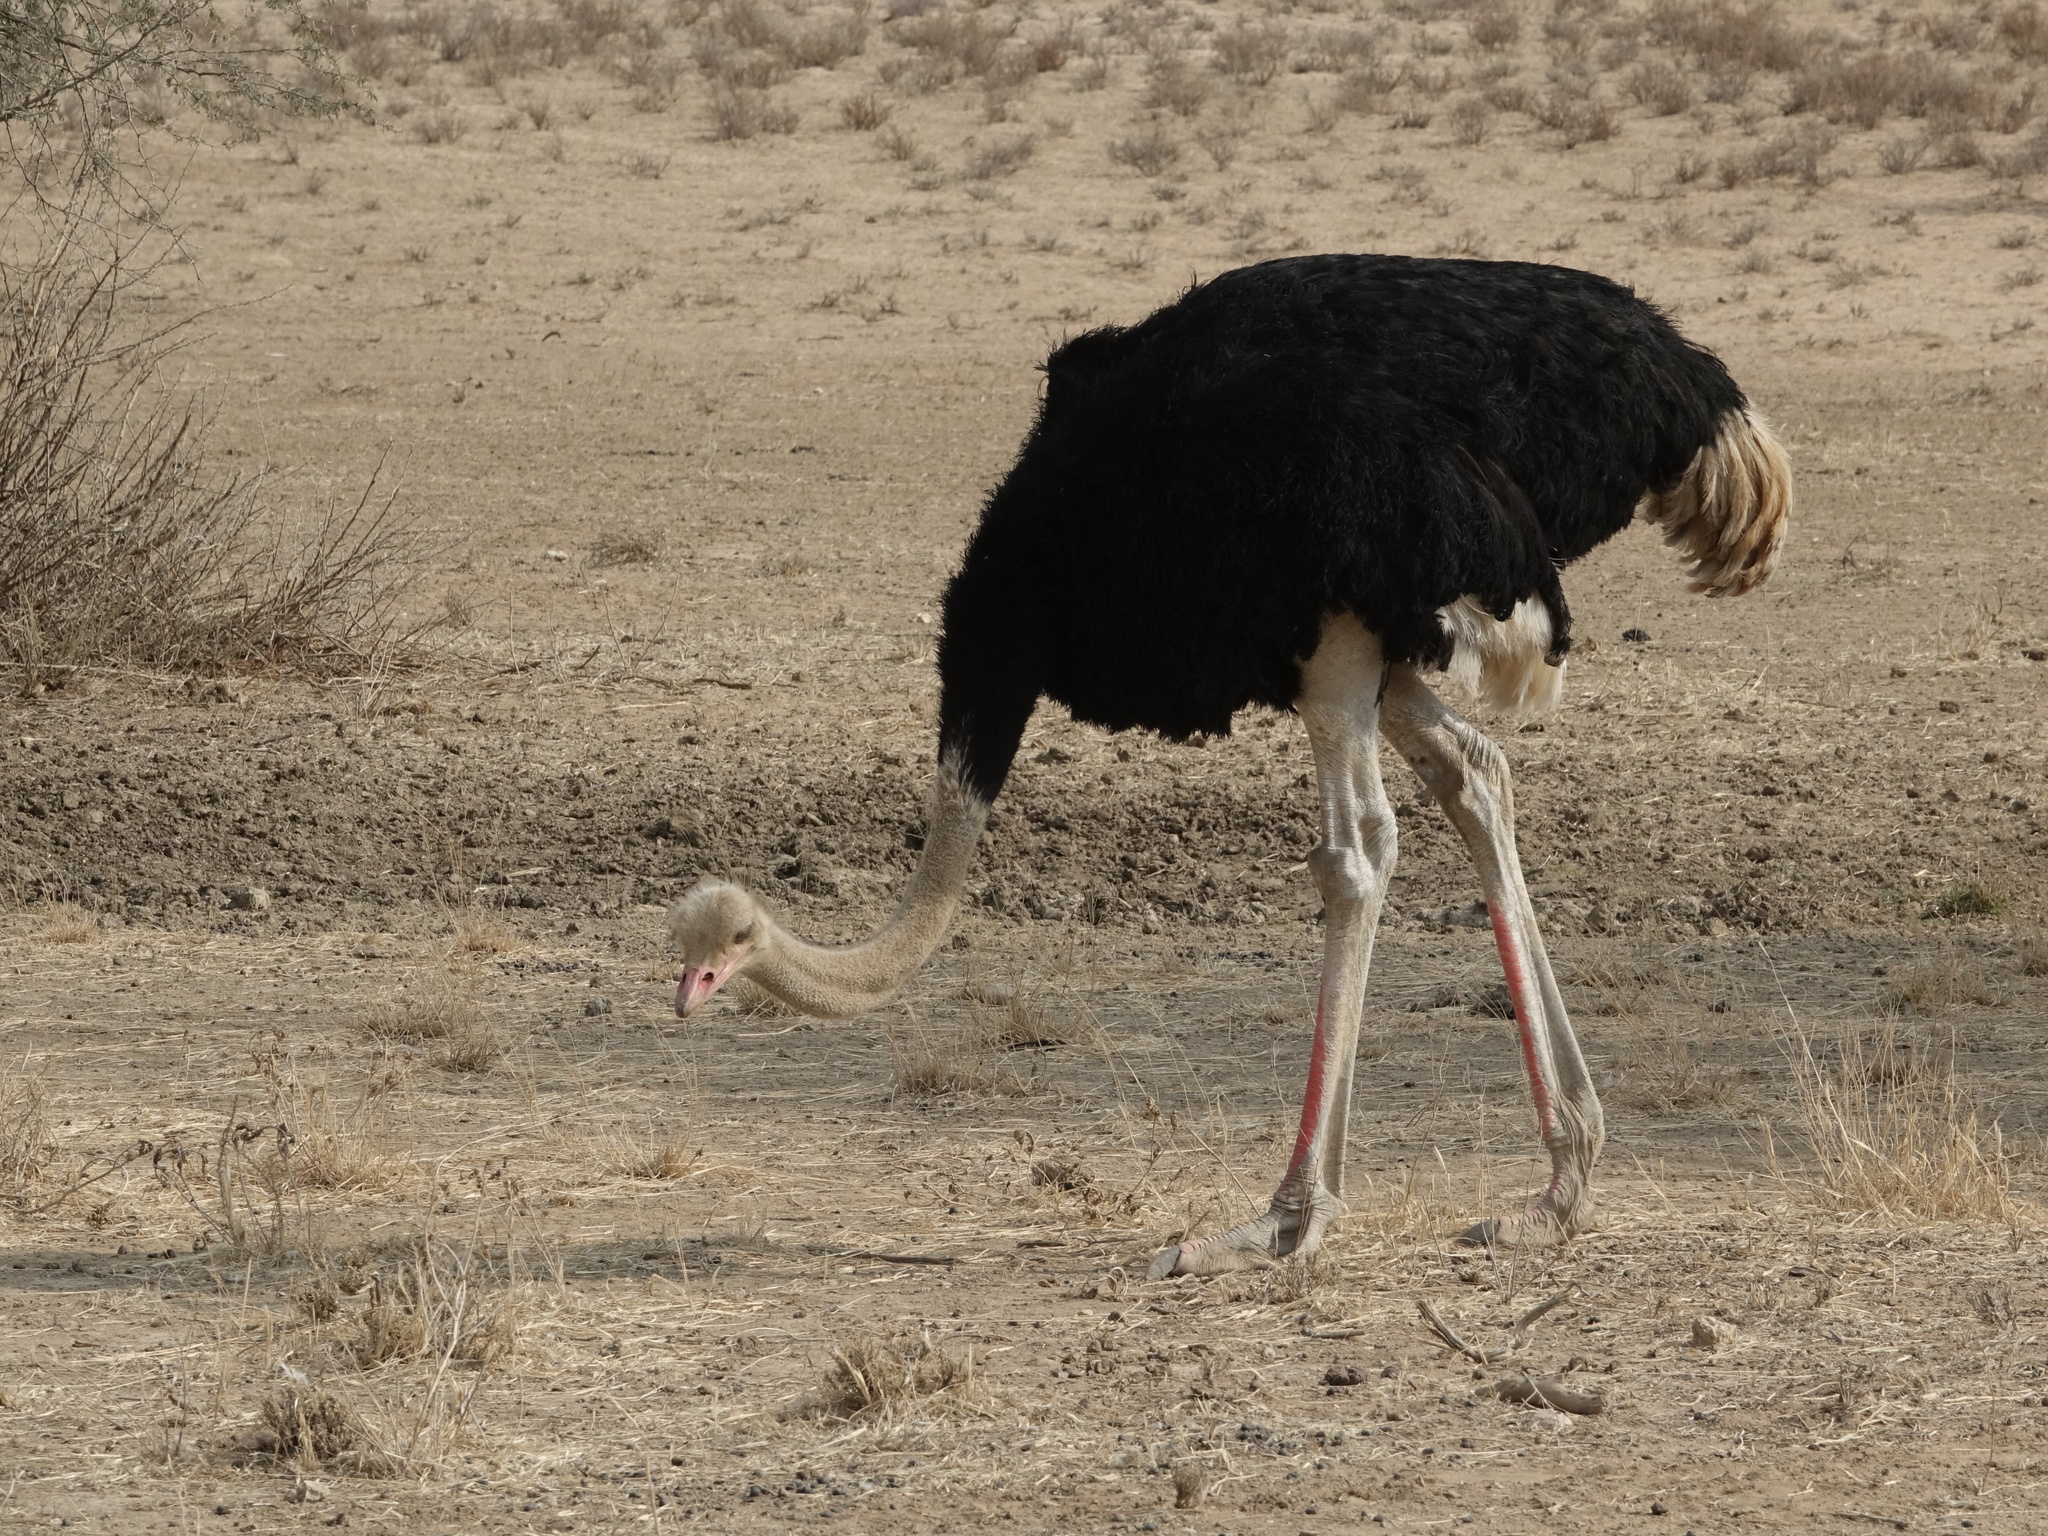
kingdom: Animalia
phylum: Chordata
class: Aves
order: Struthioniformes
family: Struthionidae
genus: Struthio
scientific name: Struthio camelus
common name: Common ostrich
